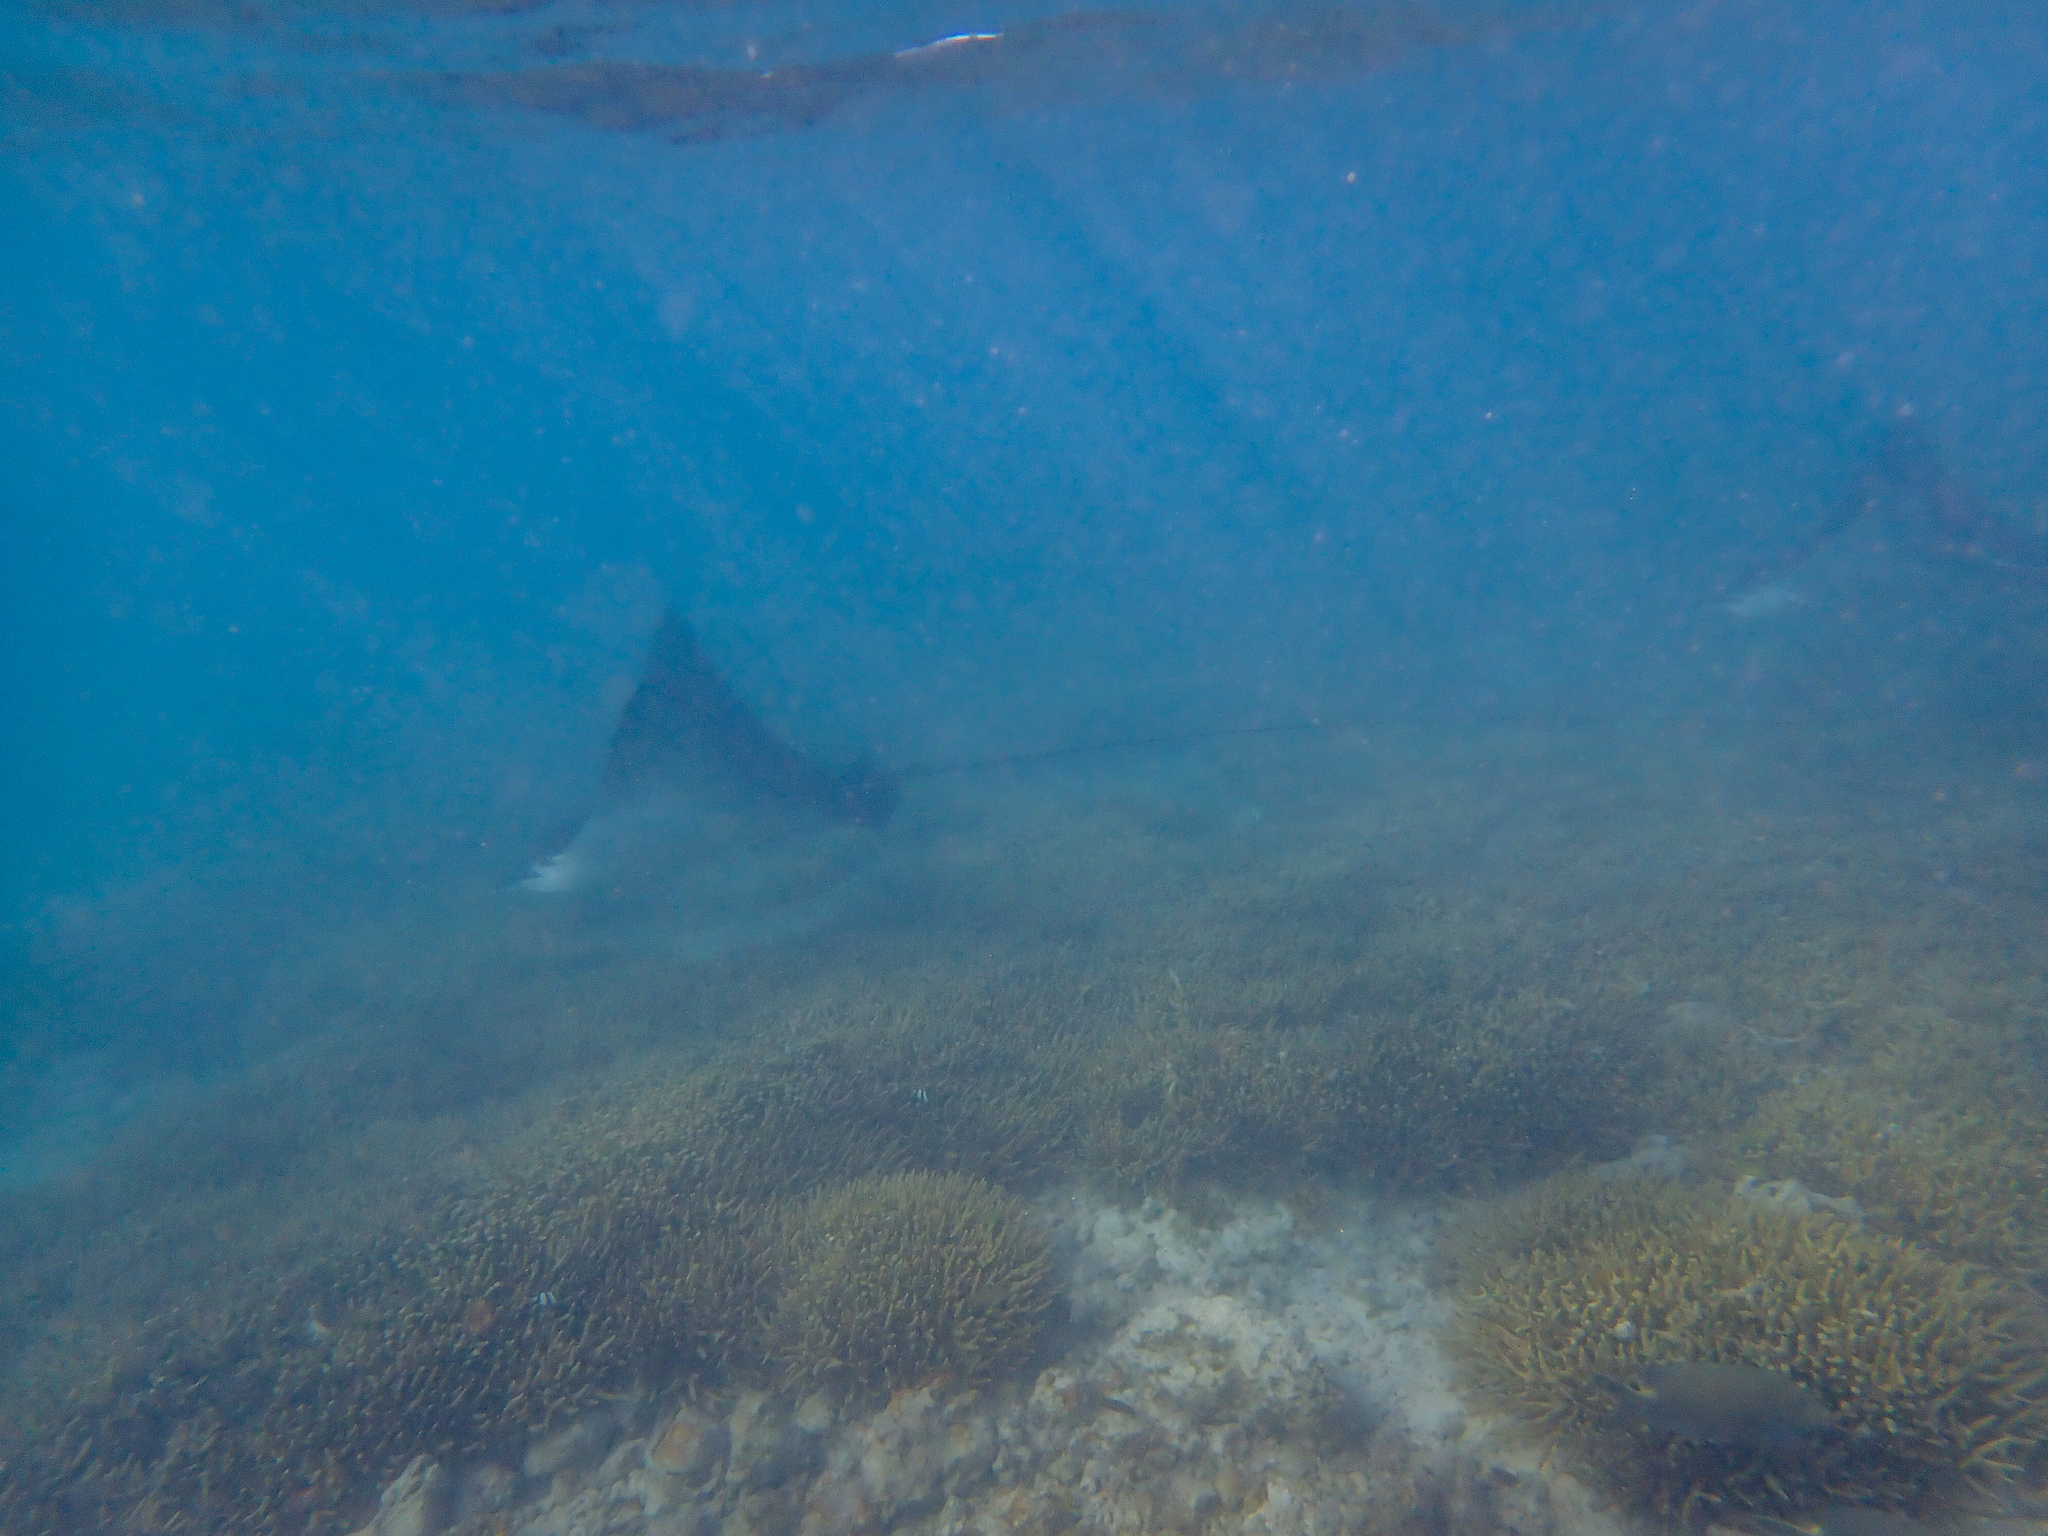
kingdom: Animalia
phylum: Chordata
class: Elasmobranchii
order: Myliobatiformes
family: Myliobatidae
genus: Aetobatus
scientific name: Aetobatus ocellatus
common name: Ocellated eagle ray
